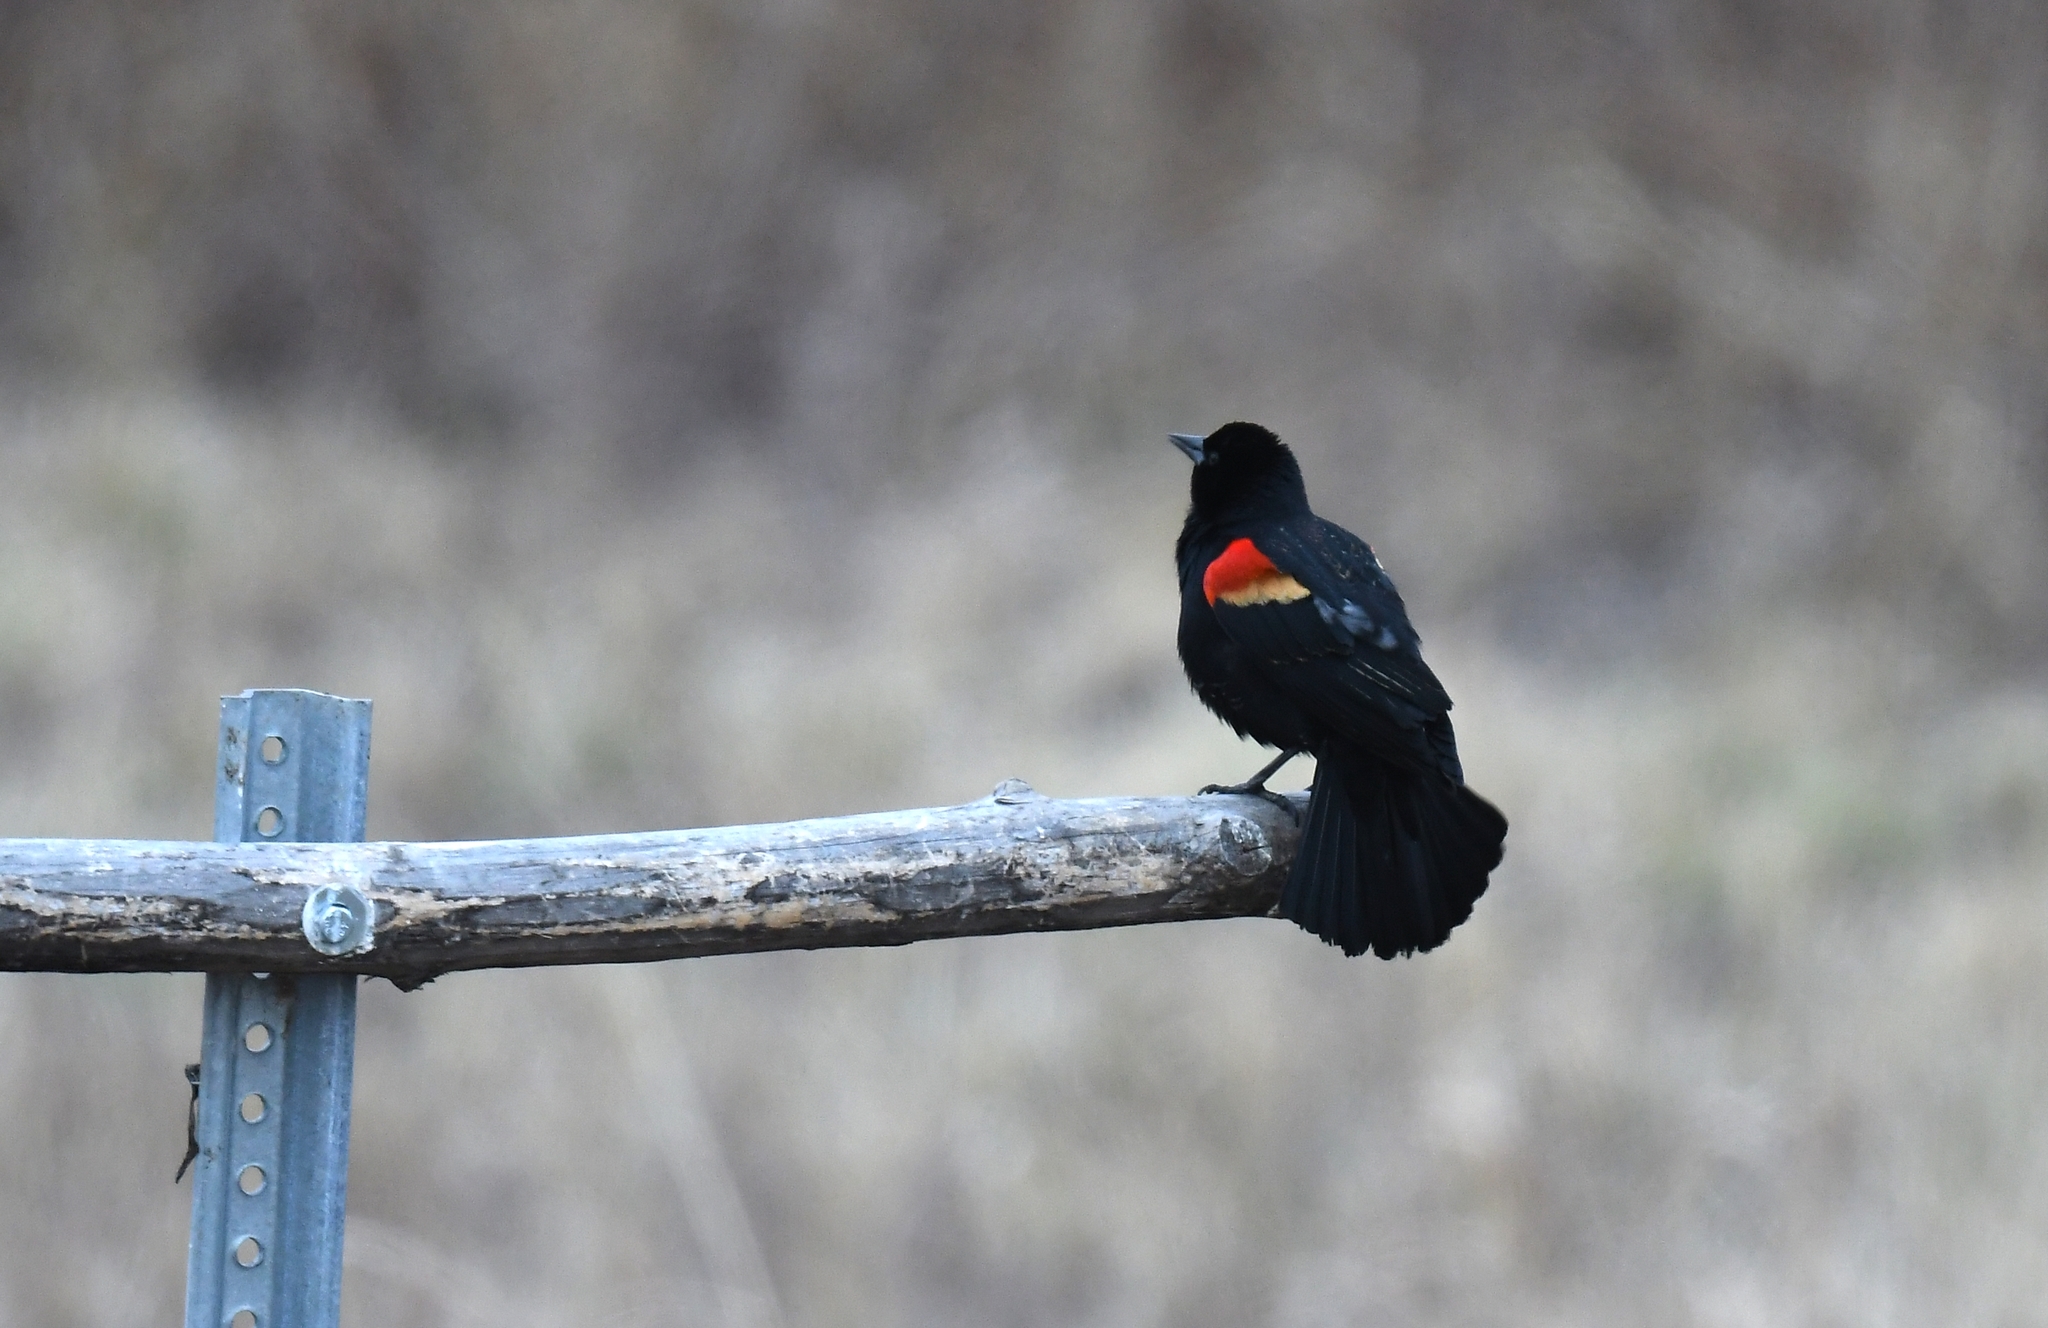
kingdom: Animalia
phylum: Chordata
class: Aves
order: Passeriformes
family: Icteridae
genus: Agelaius
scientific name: Agelaius phoeniceus
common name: Red-winged blackbird
